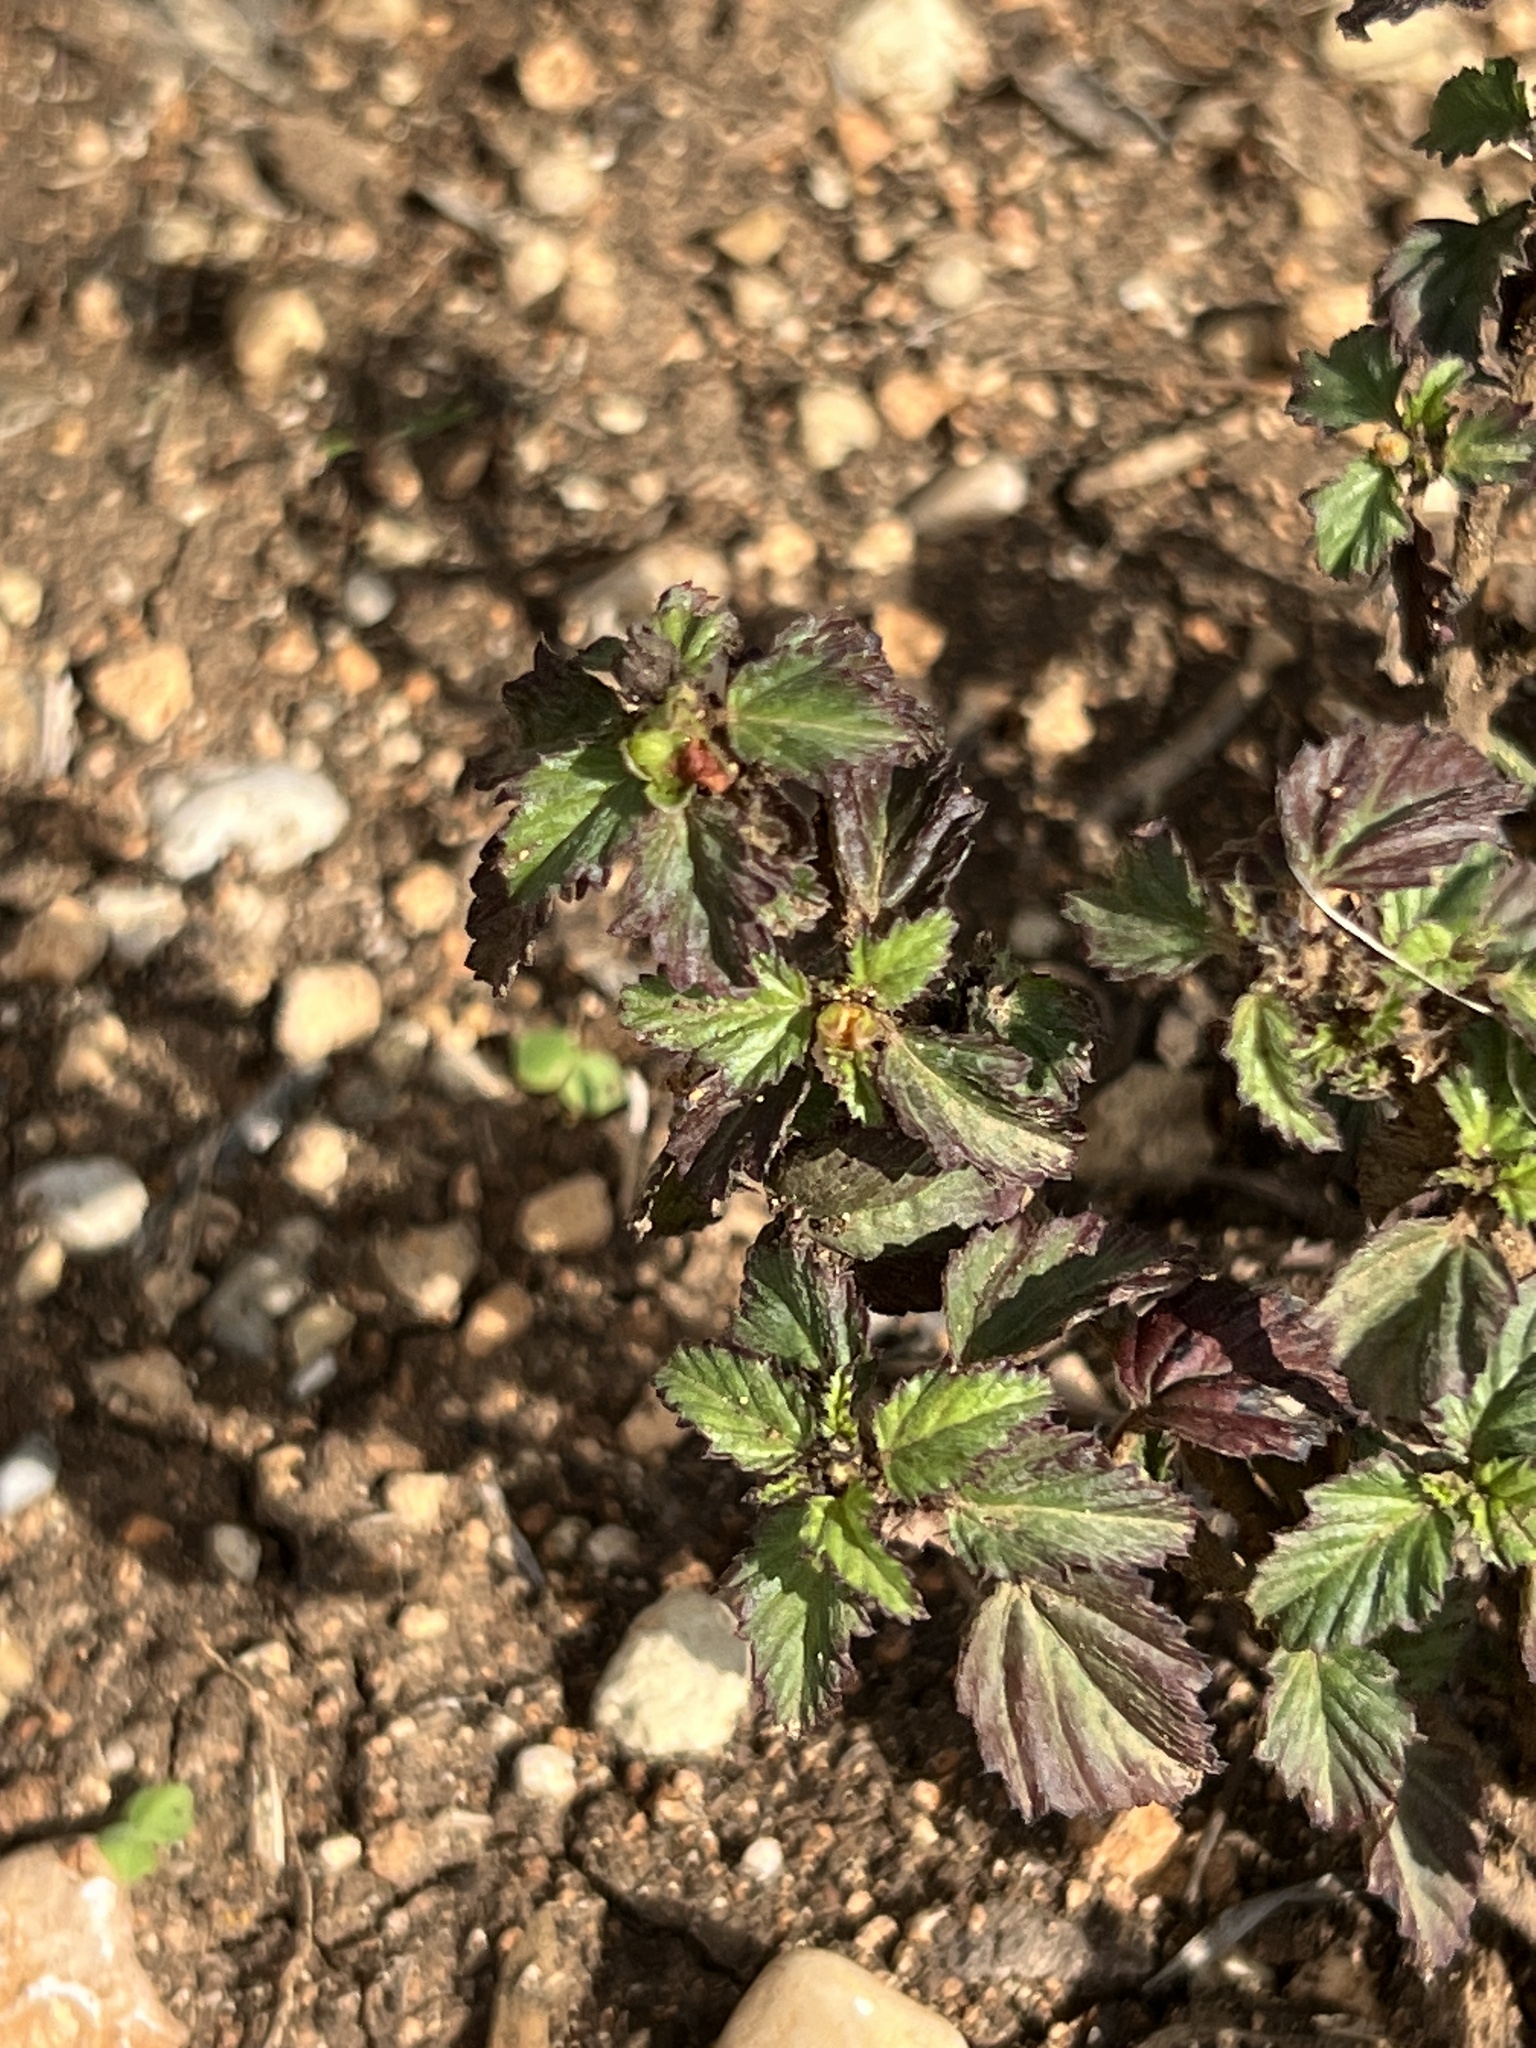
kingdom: Plantae
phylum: Tracheophyta
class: Magnoliopsida
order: Malvales
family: Malvaceae
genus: Malvastrum
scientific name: Malvastrum coromandelianum
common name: Threelobe false mallow
